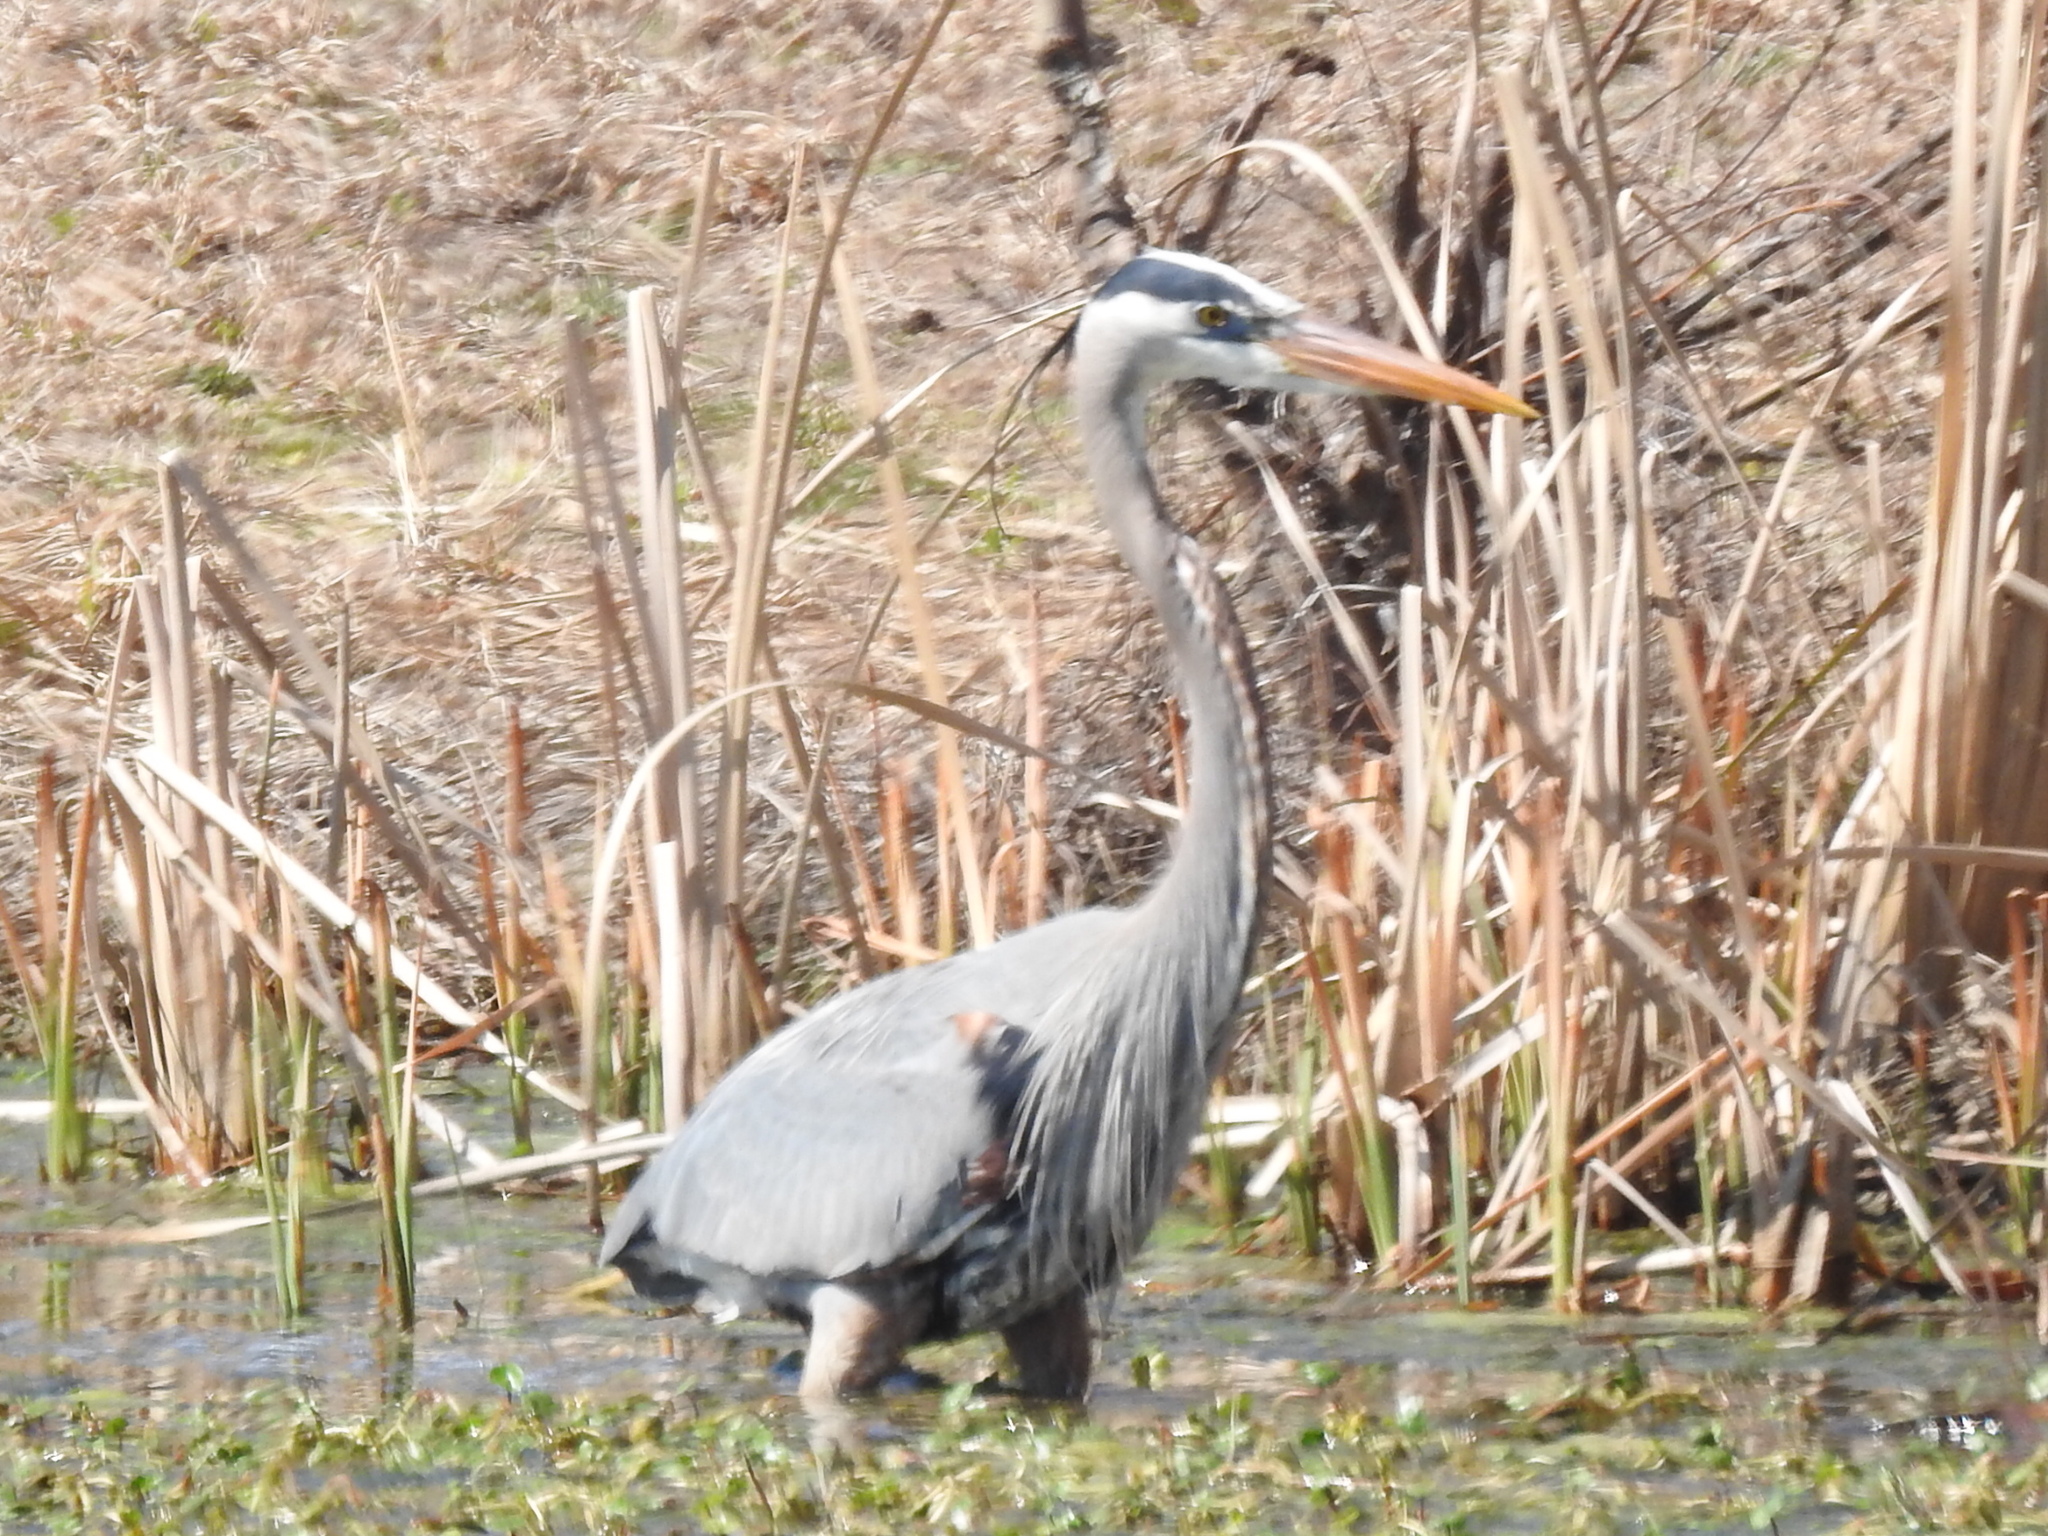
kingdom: Animalia
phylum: Chordata
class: Aves
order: Pelecaniformes
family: Ardeidae
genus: Ardea
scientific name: Ardea herodias
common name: Great blue heron
